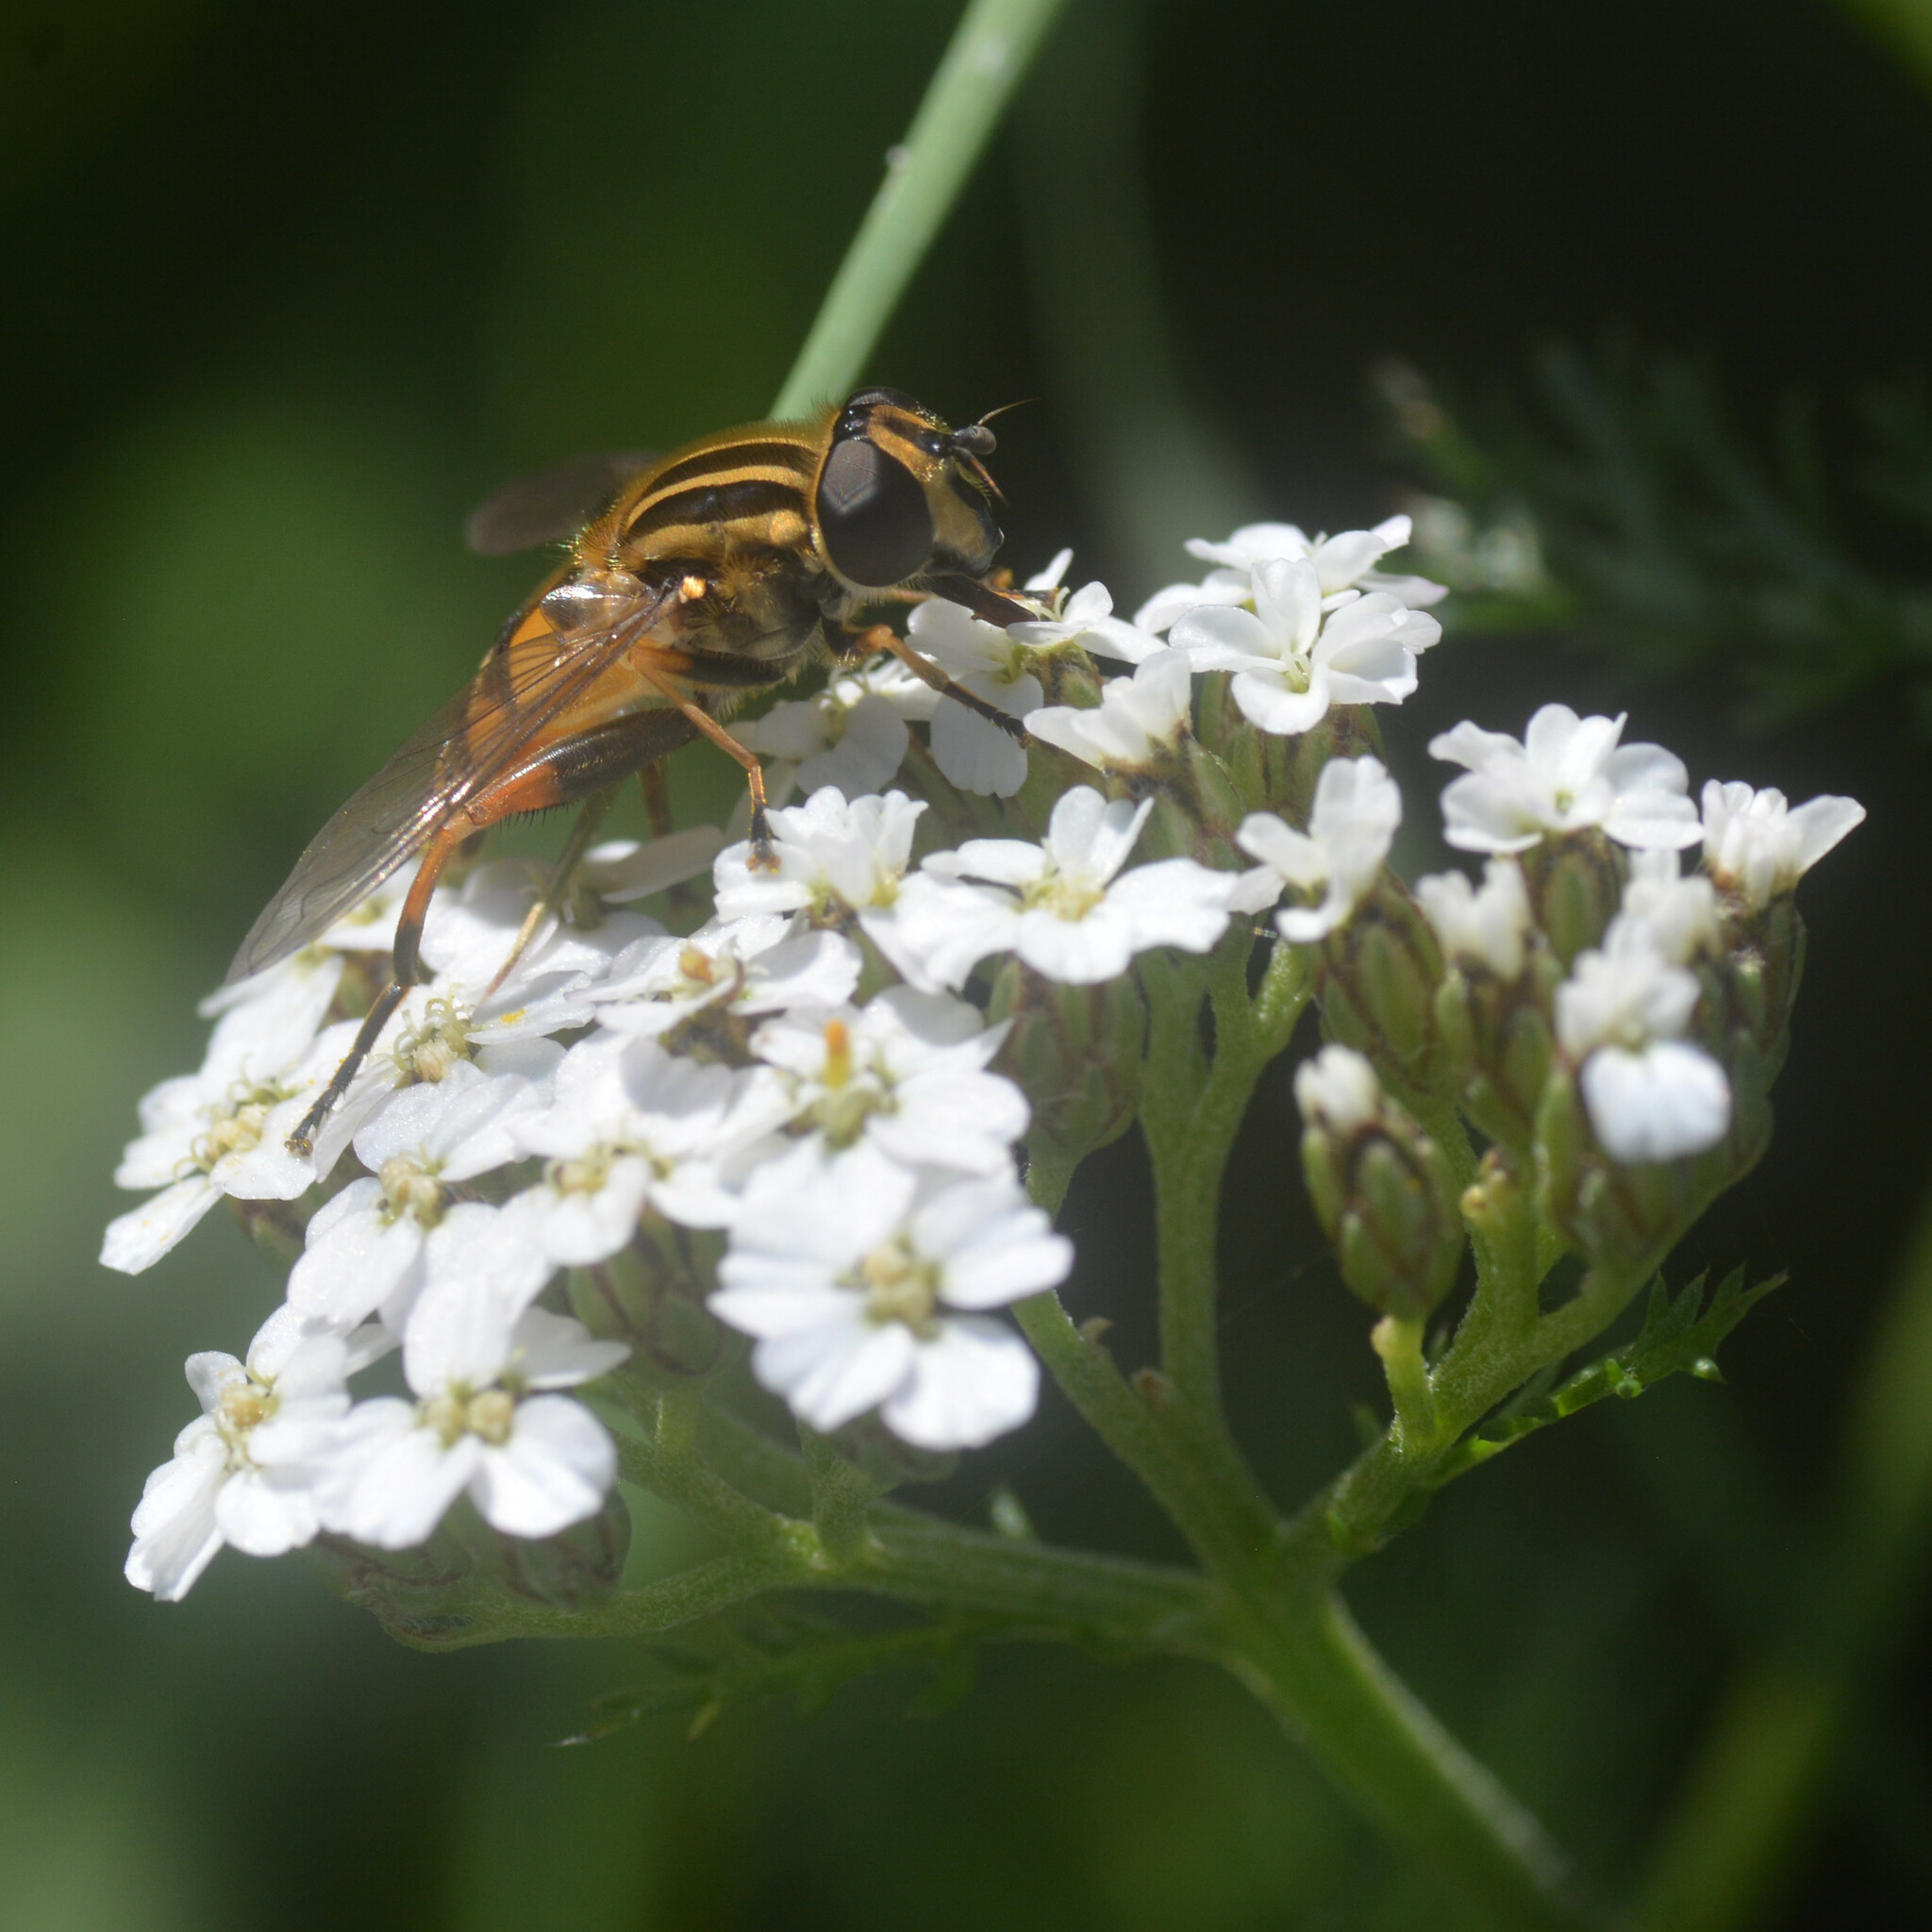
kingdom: Animalia
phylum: Arthropoda
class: Insecta
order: Diptera
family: Syrphidae
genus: Helophilus
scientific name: Helophilus pendulus
